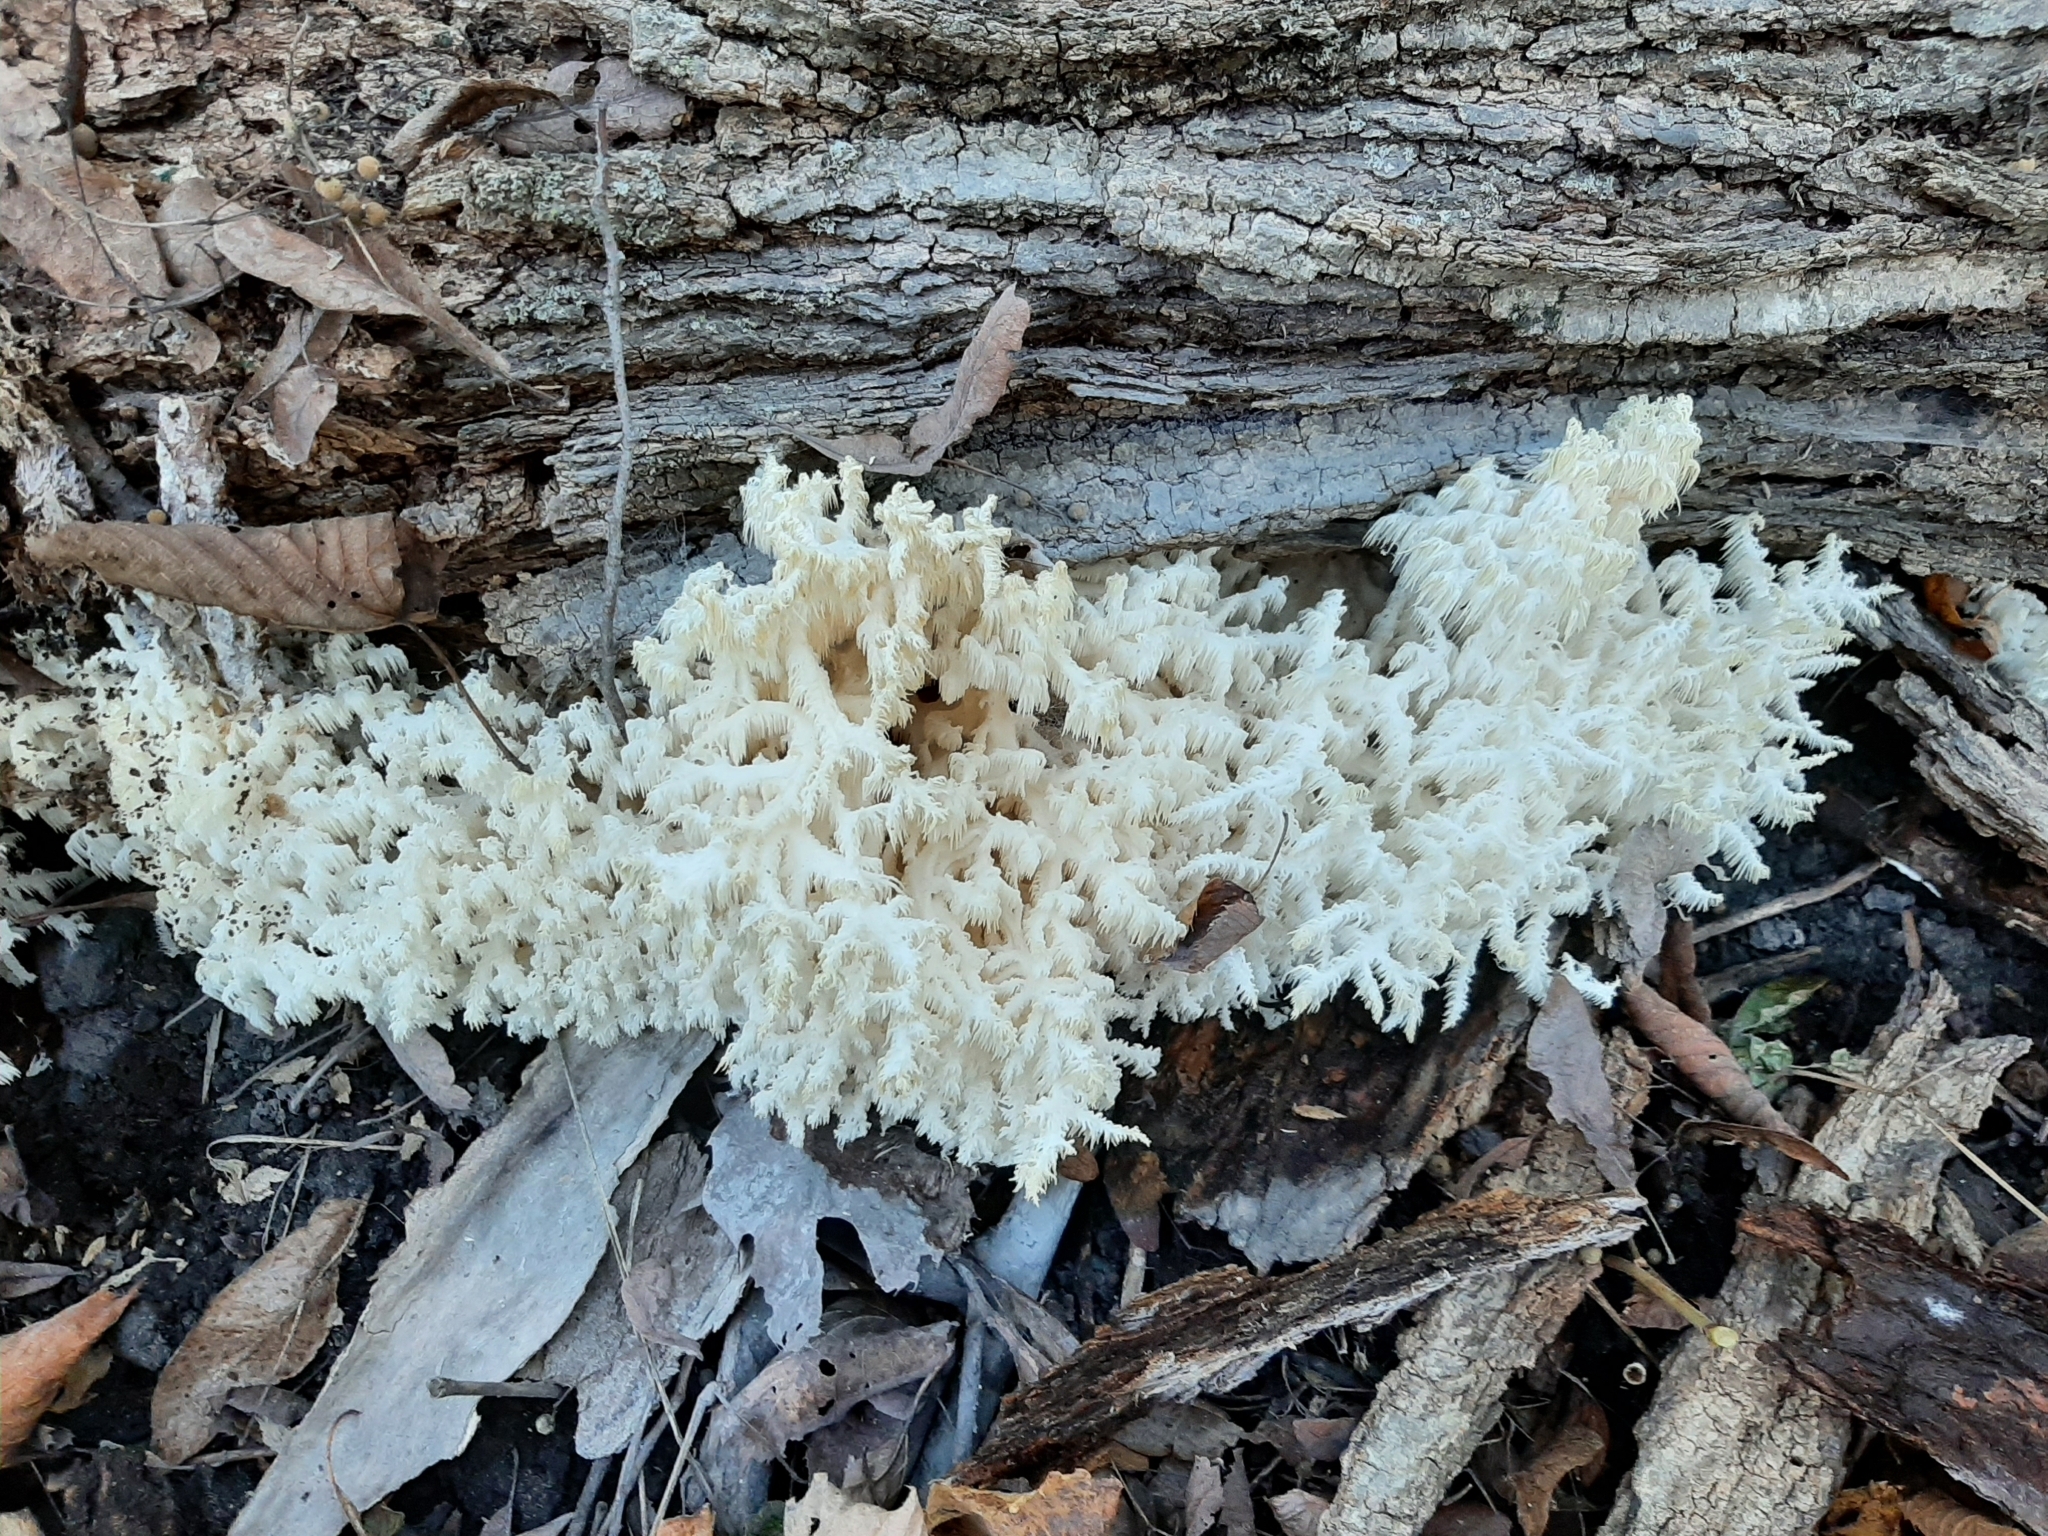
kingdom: Fungi
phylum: Basidiomycota
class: Agaricomycetes
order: Russulales
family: Hericiaceae
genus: Hericium
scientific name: Hericium coralloides
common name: Coral tooth
